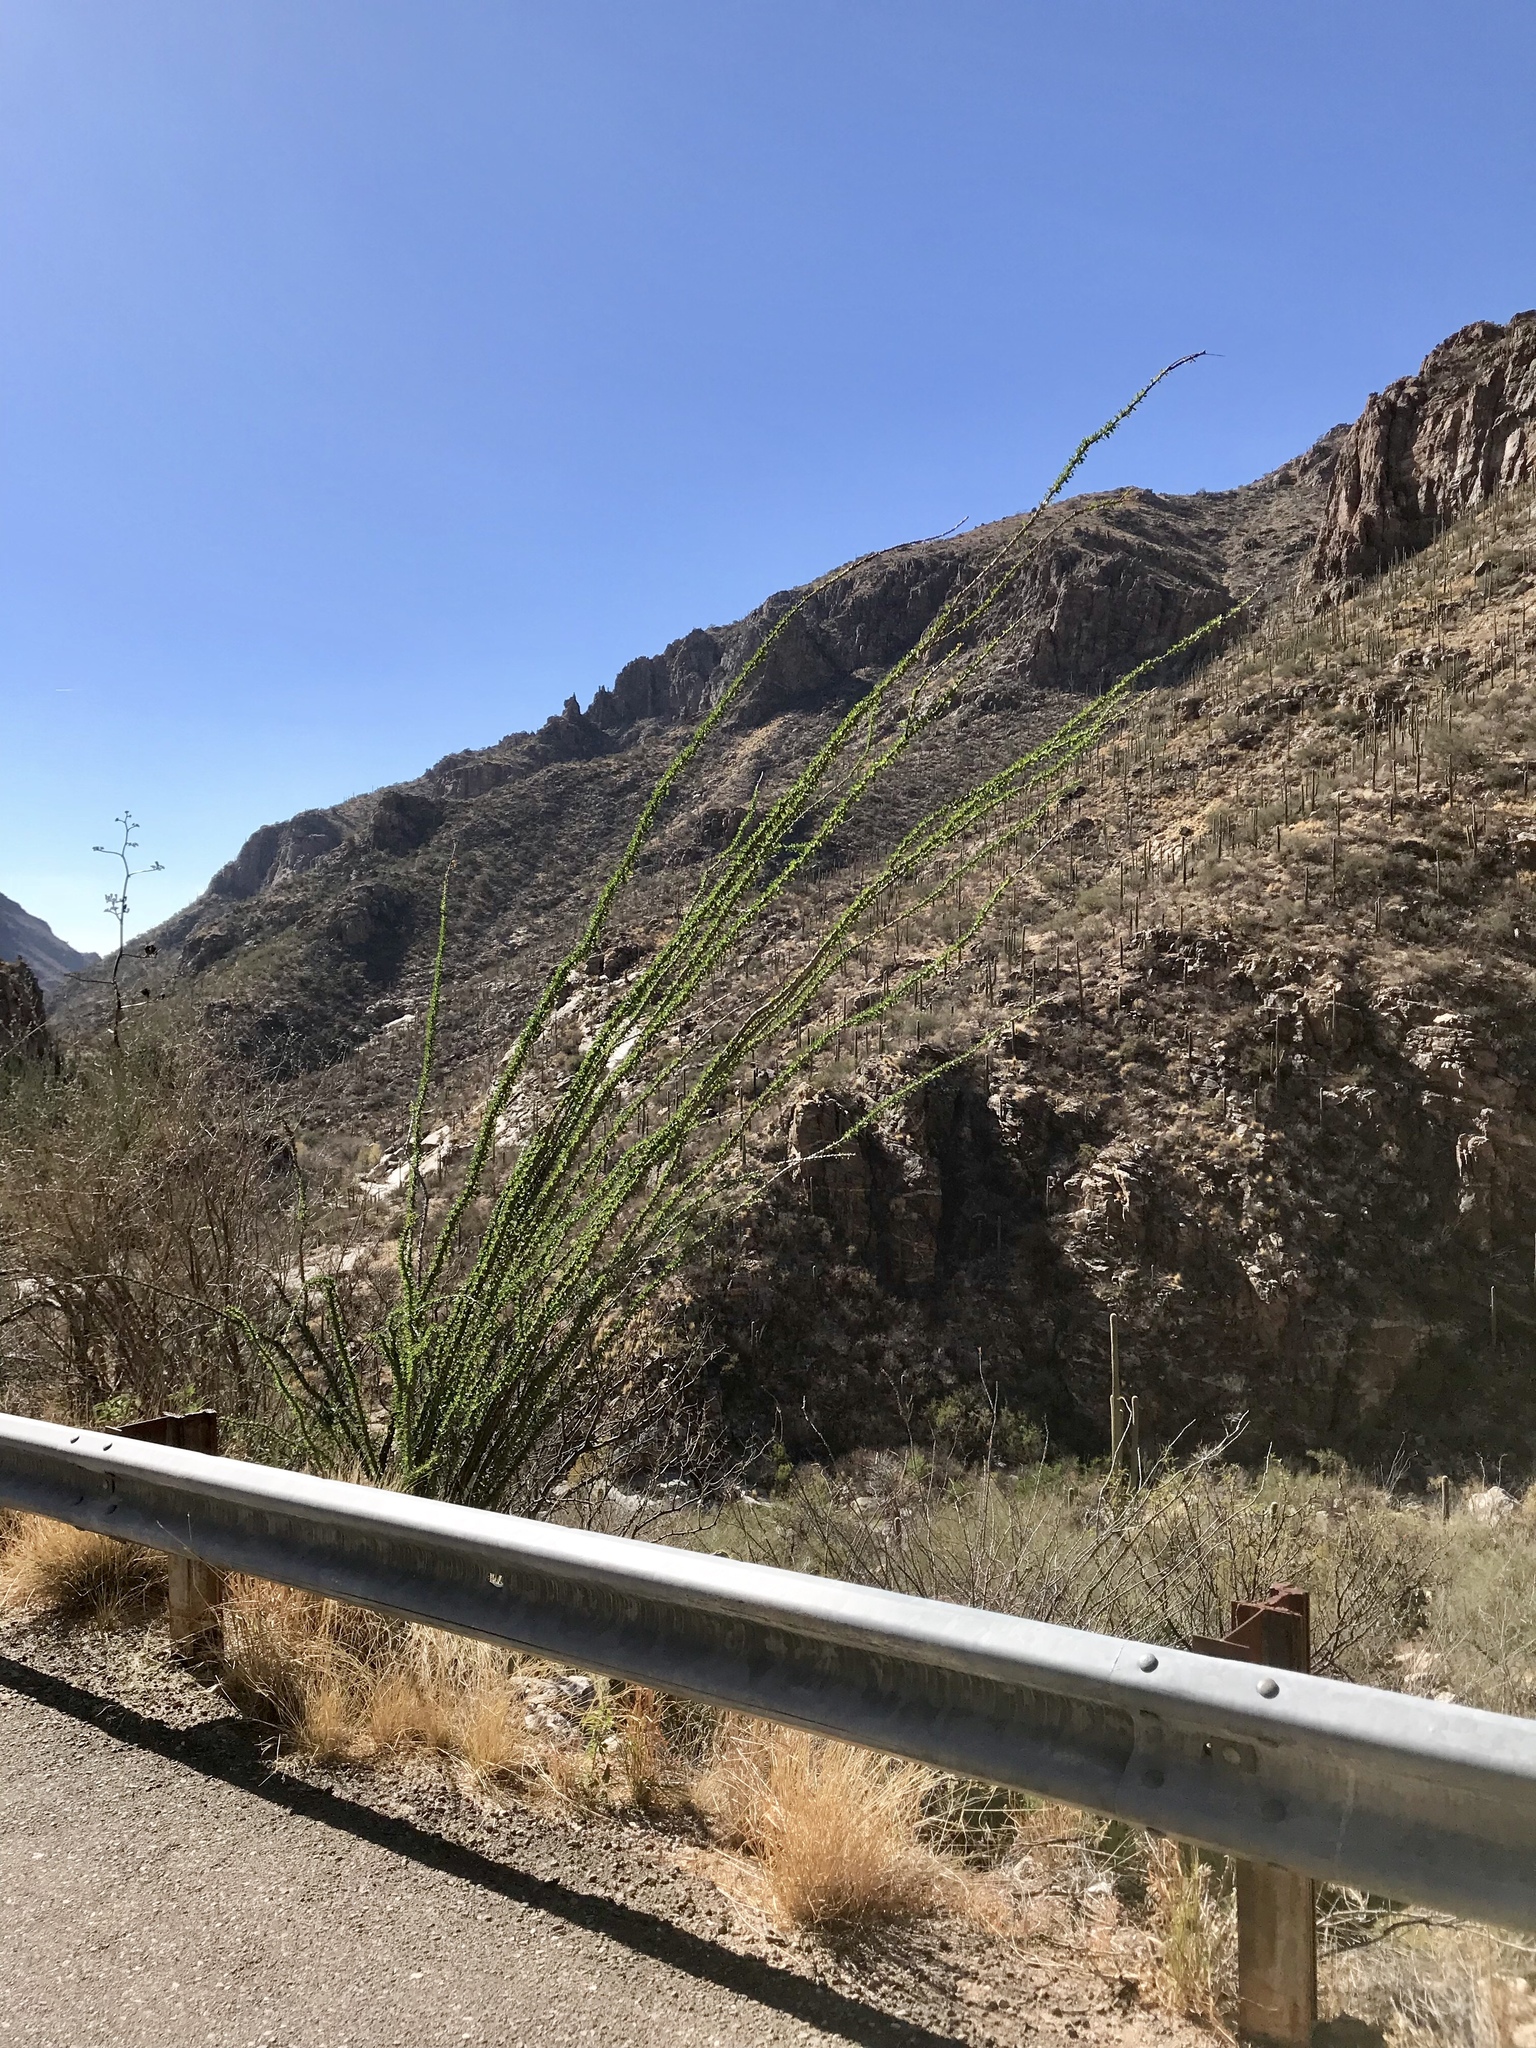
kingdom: Plantae
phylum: Tracheophyta
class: Magnoliopsida
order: Ericales
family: Fouquieriaceae
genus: Fouquieria
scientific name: Fouquieria splendens
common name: Vine-cactus
